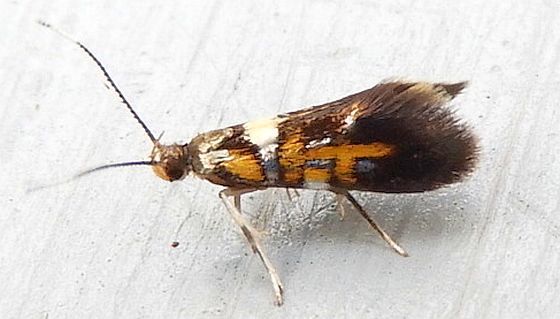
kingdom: Animalia
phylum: Arthropoda
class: Insecta
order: Lepidoptera
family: Oecophoridae
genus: Fabiola
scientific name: Fabiola edithella
